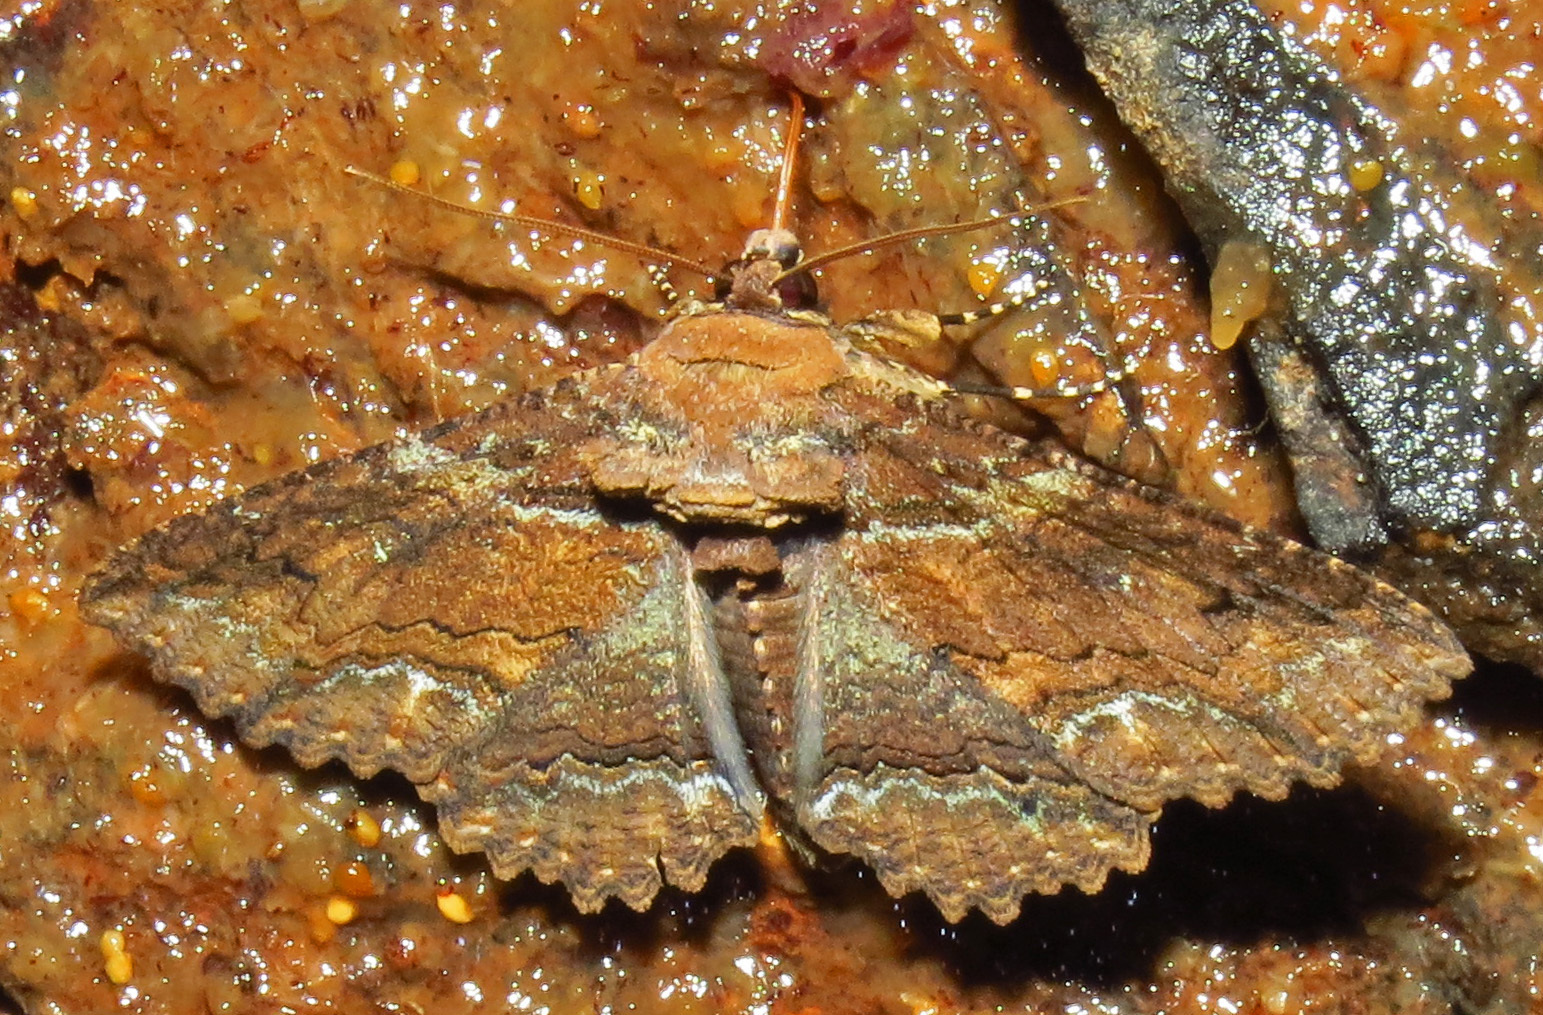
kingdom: Animalia
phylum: Arthropoda
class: Insecta
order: Lepidoptera
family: Erebidae
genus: Zale
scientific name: Zale lunata
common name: Lunate zale moth
